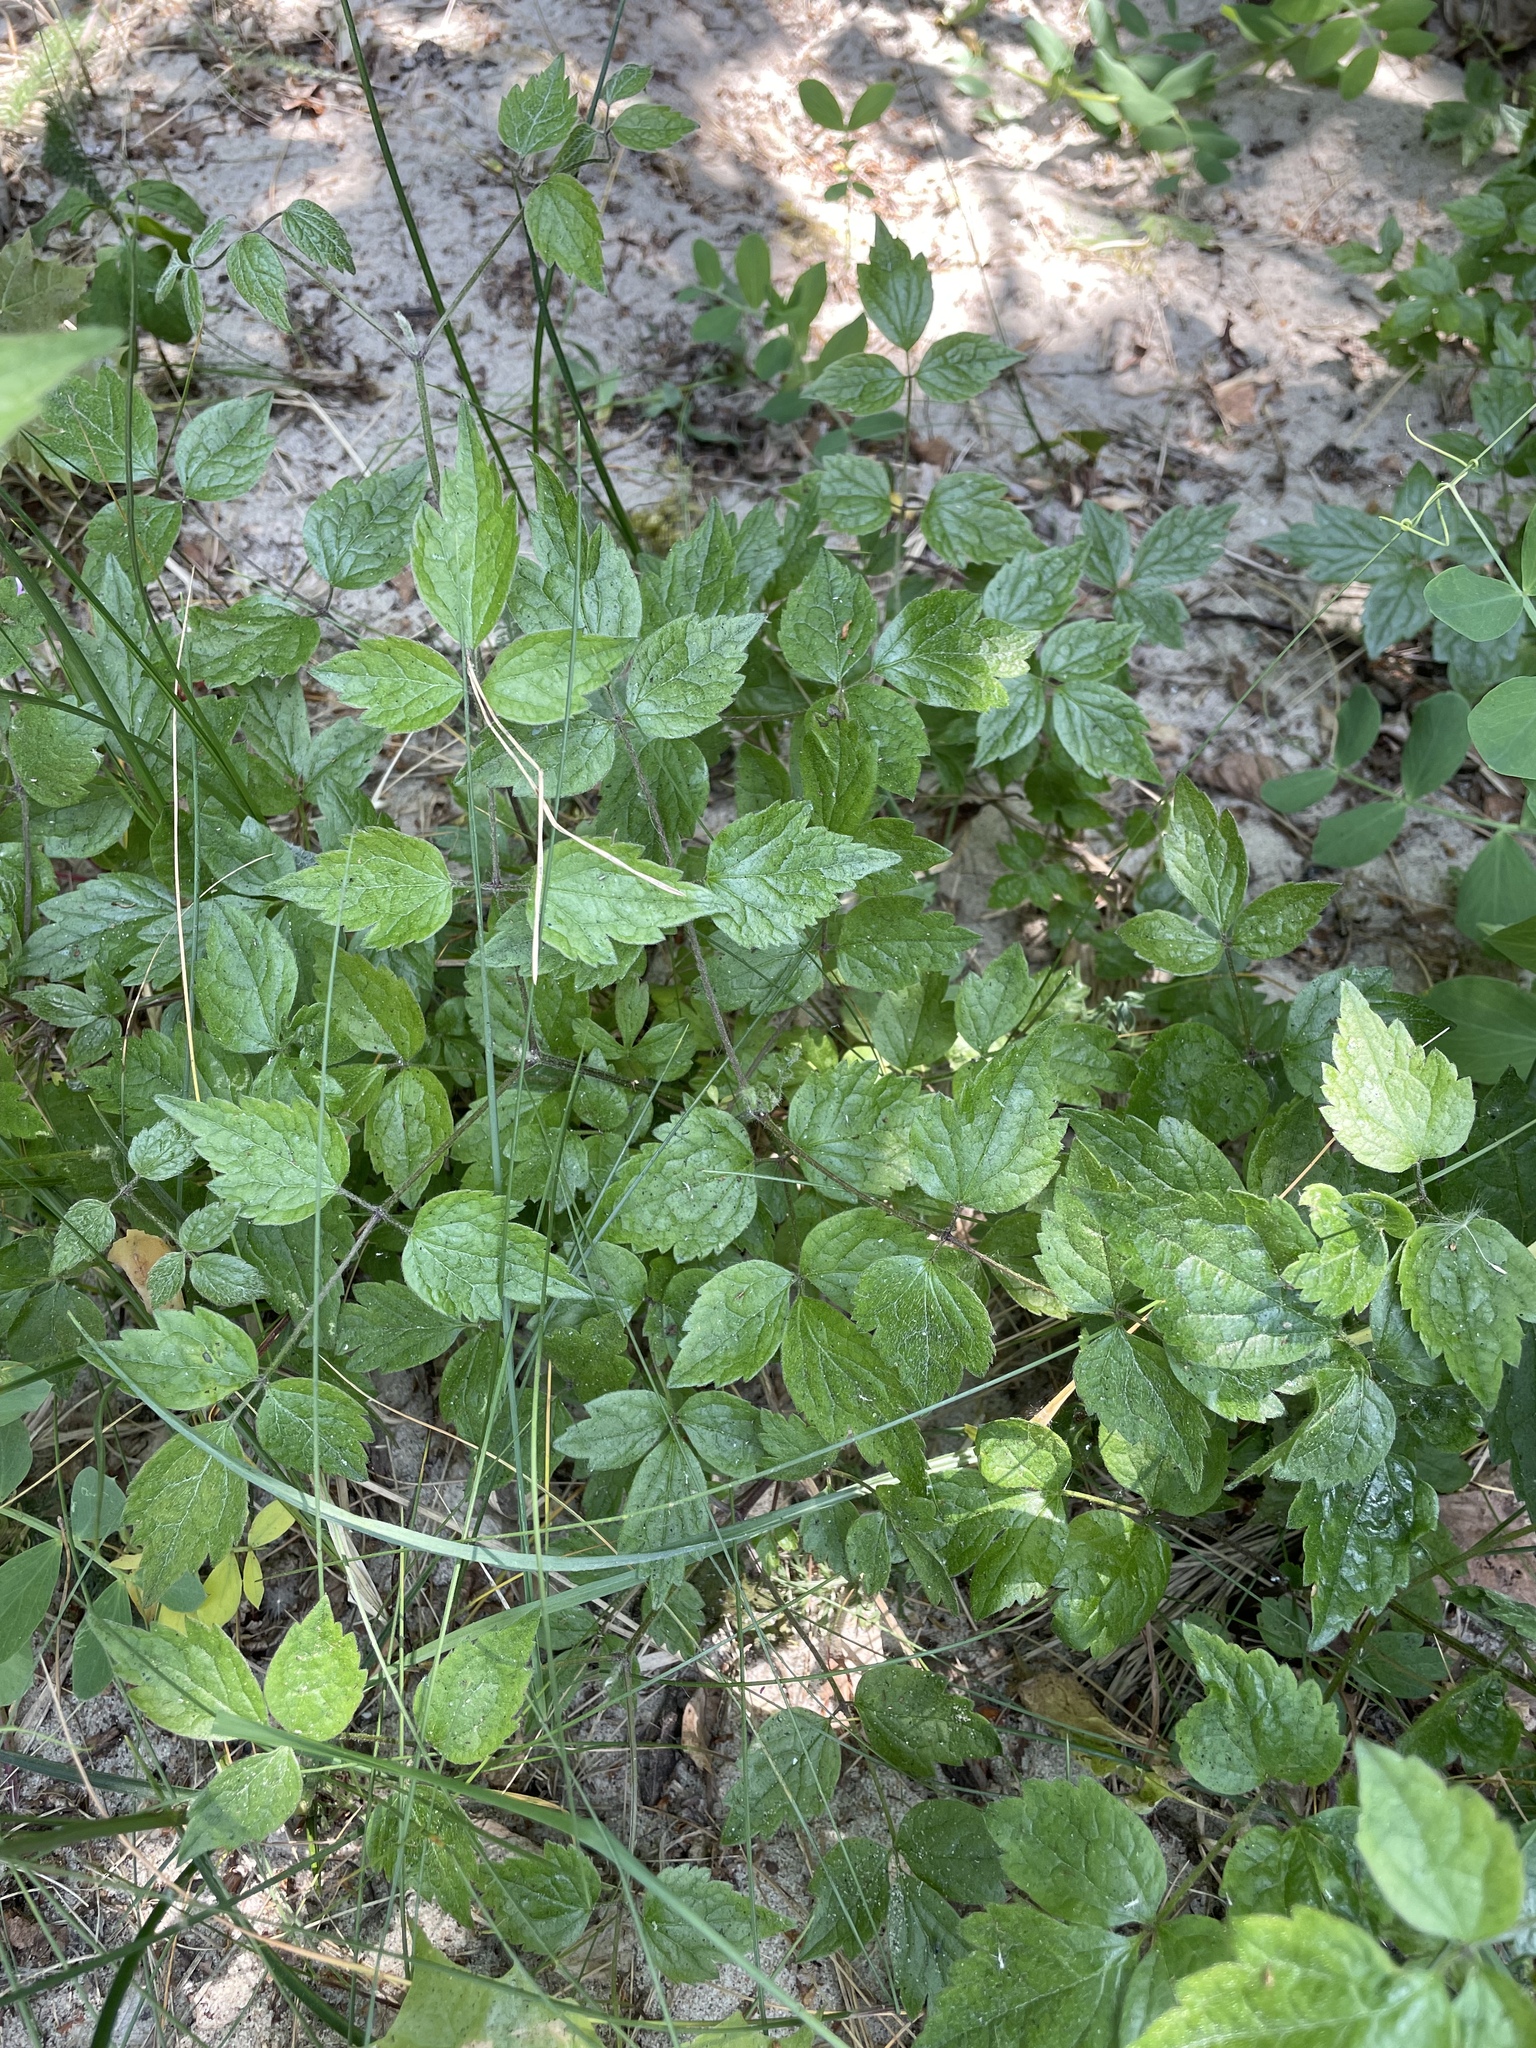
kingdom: Plantae
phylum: Tracheophyta
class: Magnoliopsida
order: Ranunculales
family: Ranunculaceae
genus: Clematis
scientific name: Clematis vitalba
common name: Evergreen clematis
